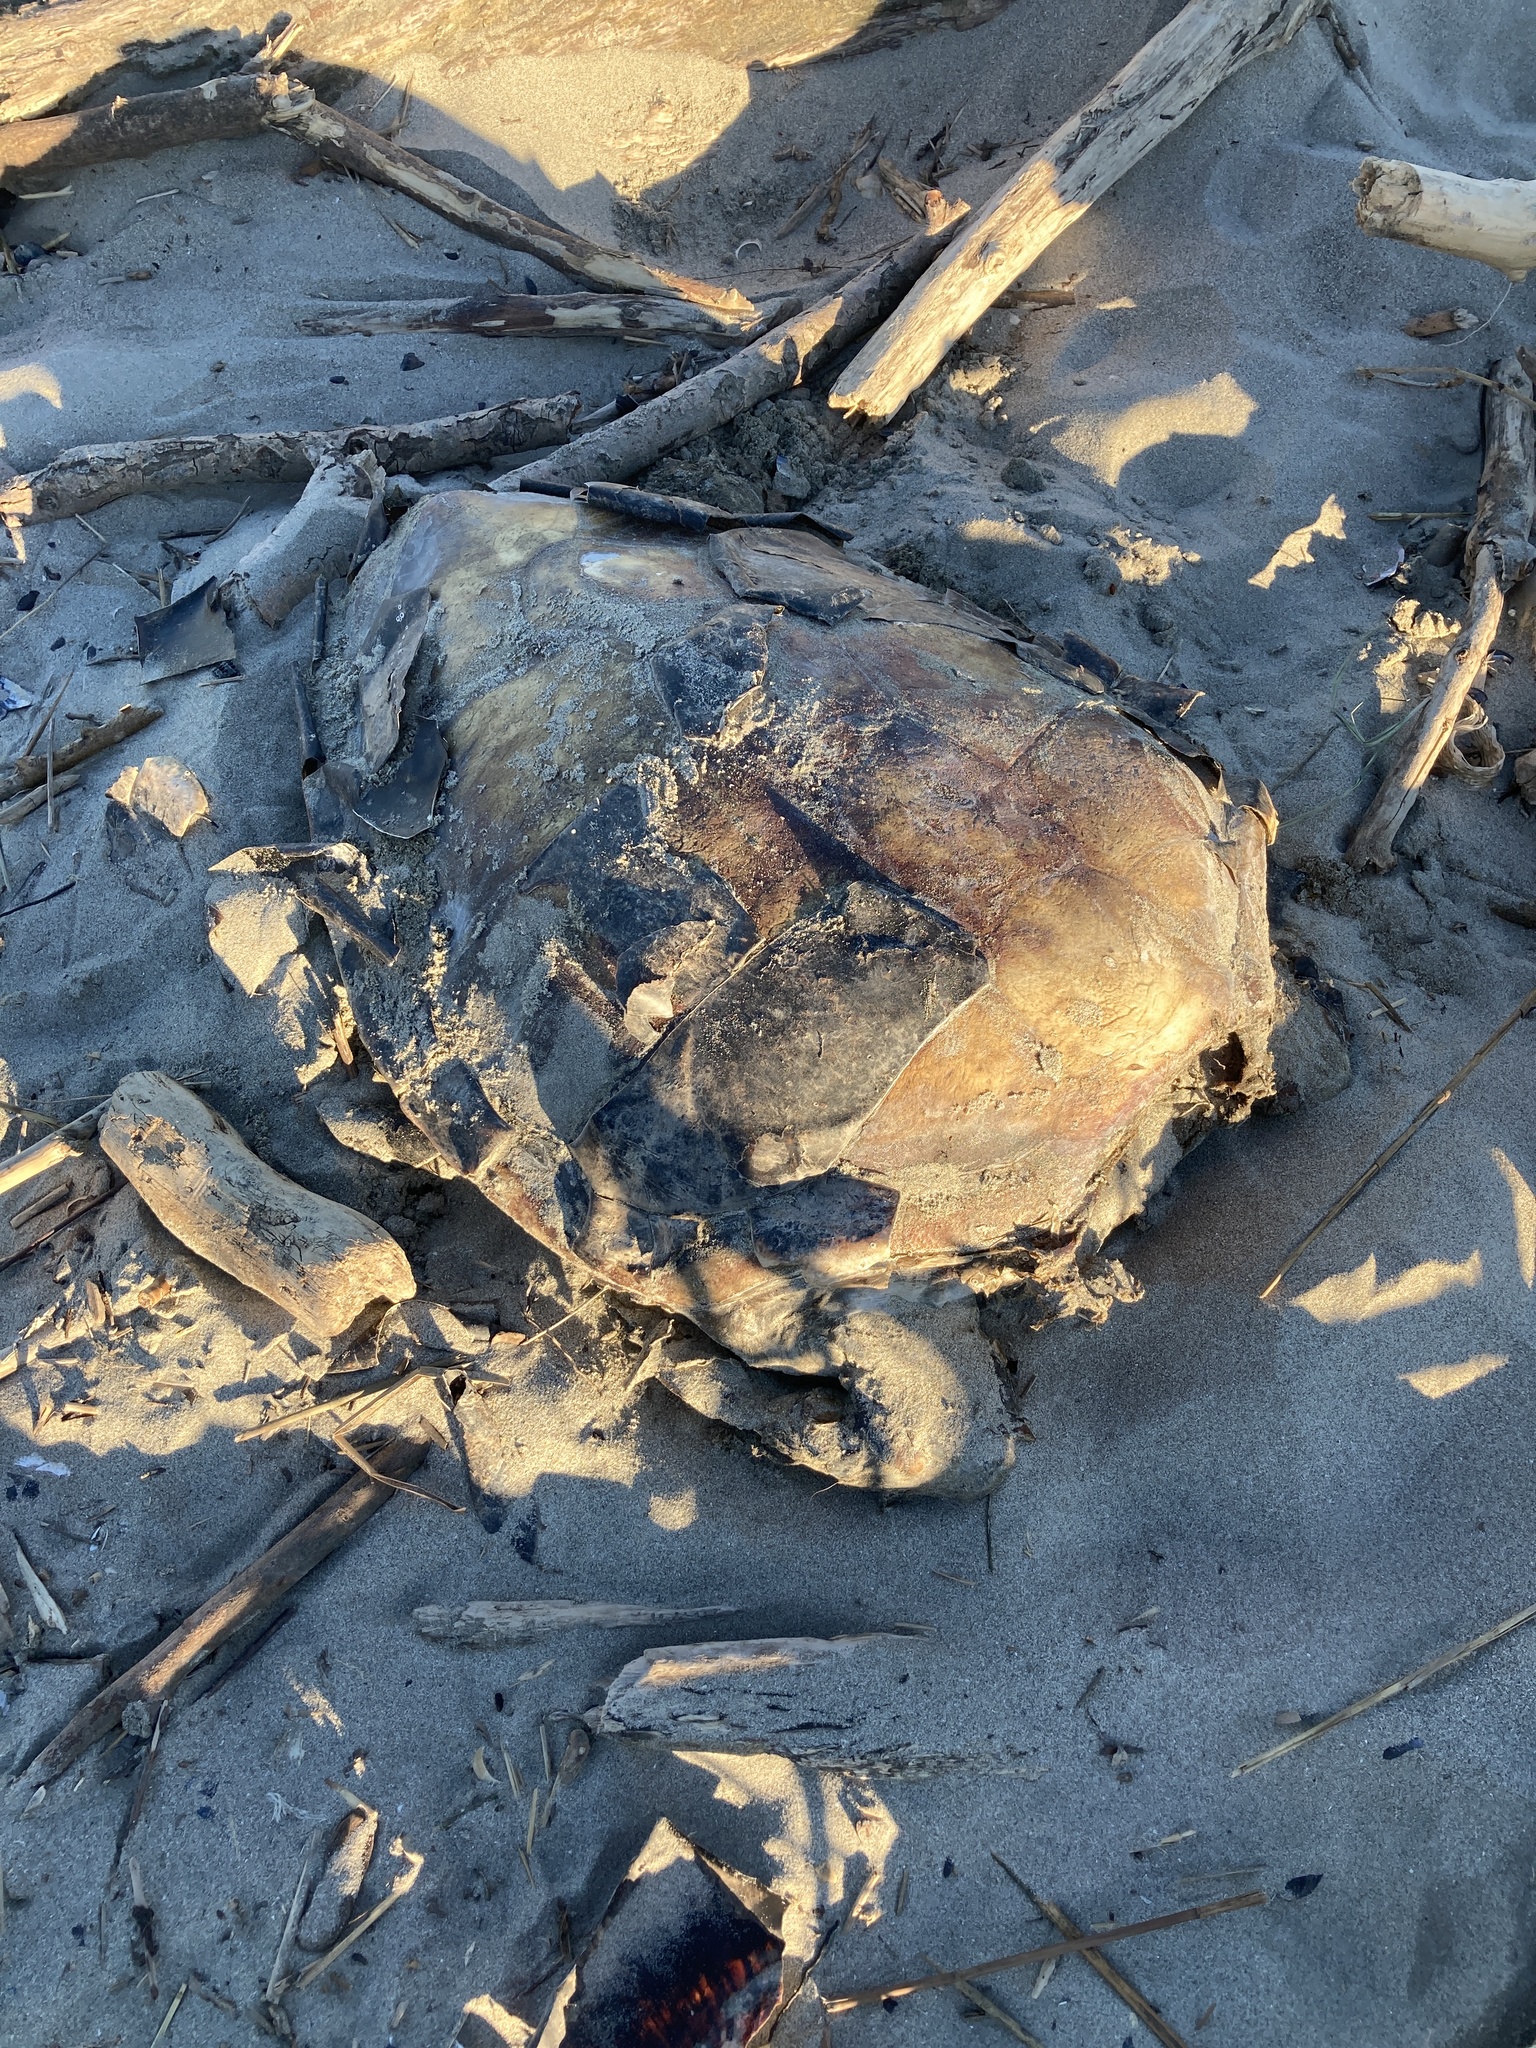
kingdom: Animalia
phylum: Chordata
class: Testudines
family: Cheloniidae
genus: Caretta
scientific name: Caretta caretta
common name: Loggerhead sea turtle
